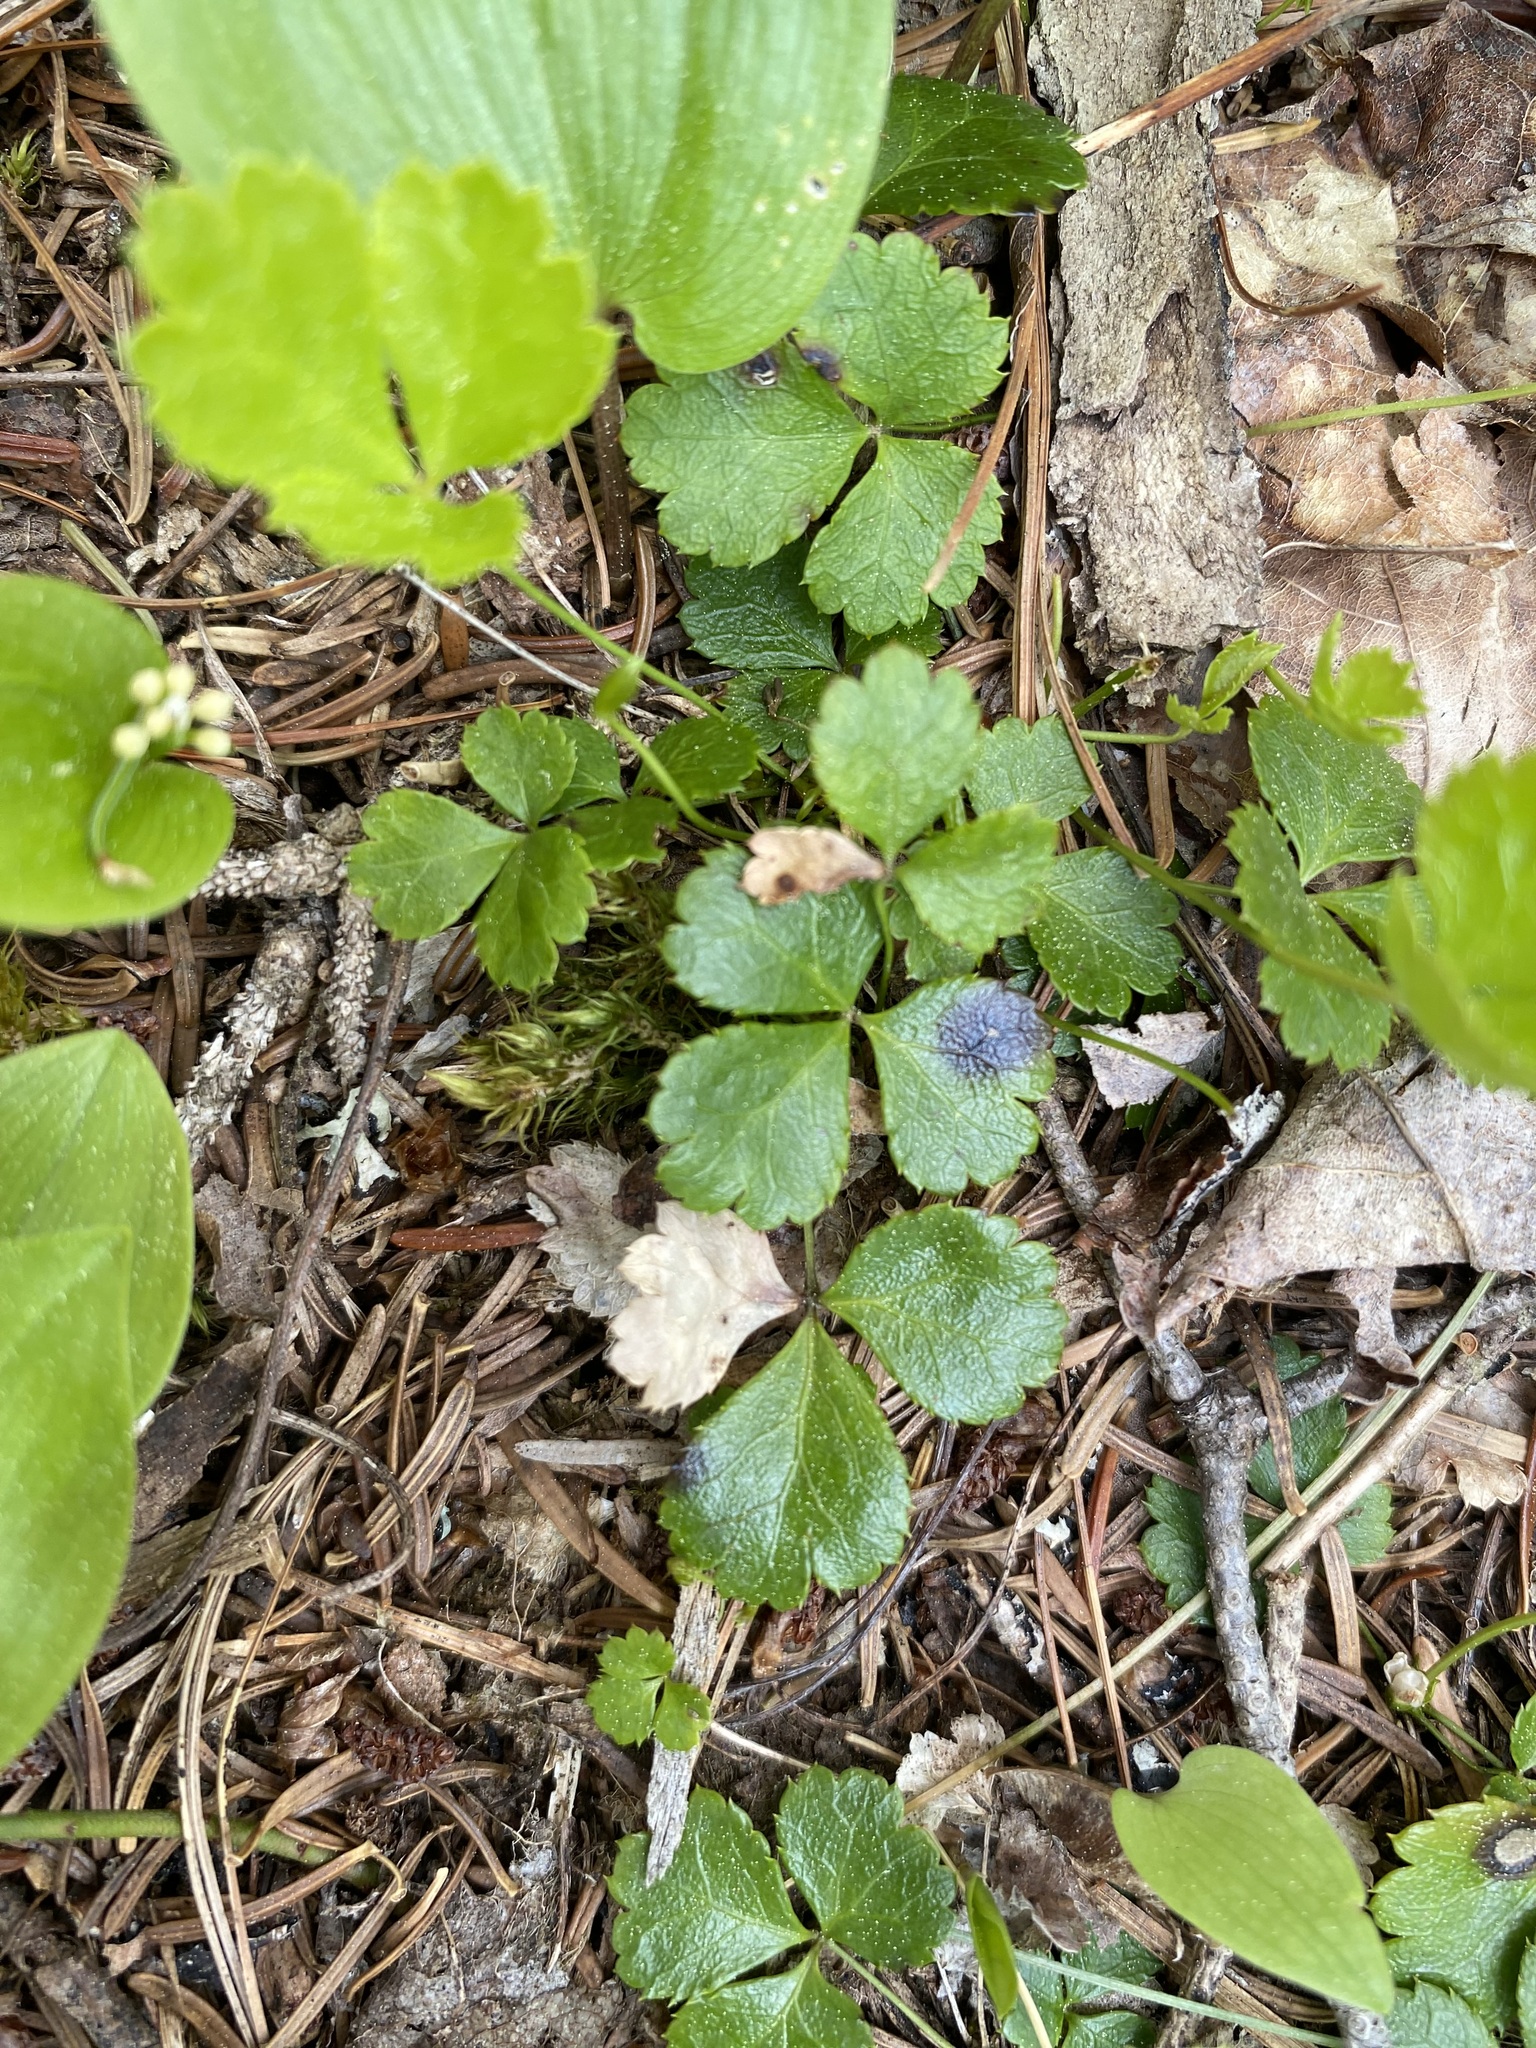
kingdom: Plantae
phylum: Tracheophyta
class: Magnoliopsida
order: Ranunculales
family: Ranunculaceae
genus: Coptis
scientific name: Coptis trifolia
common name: Canker-root
